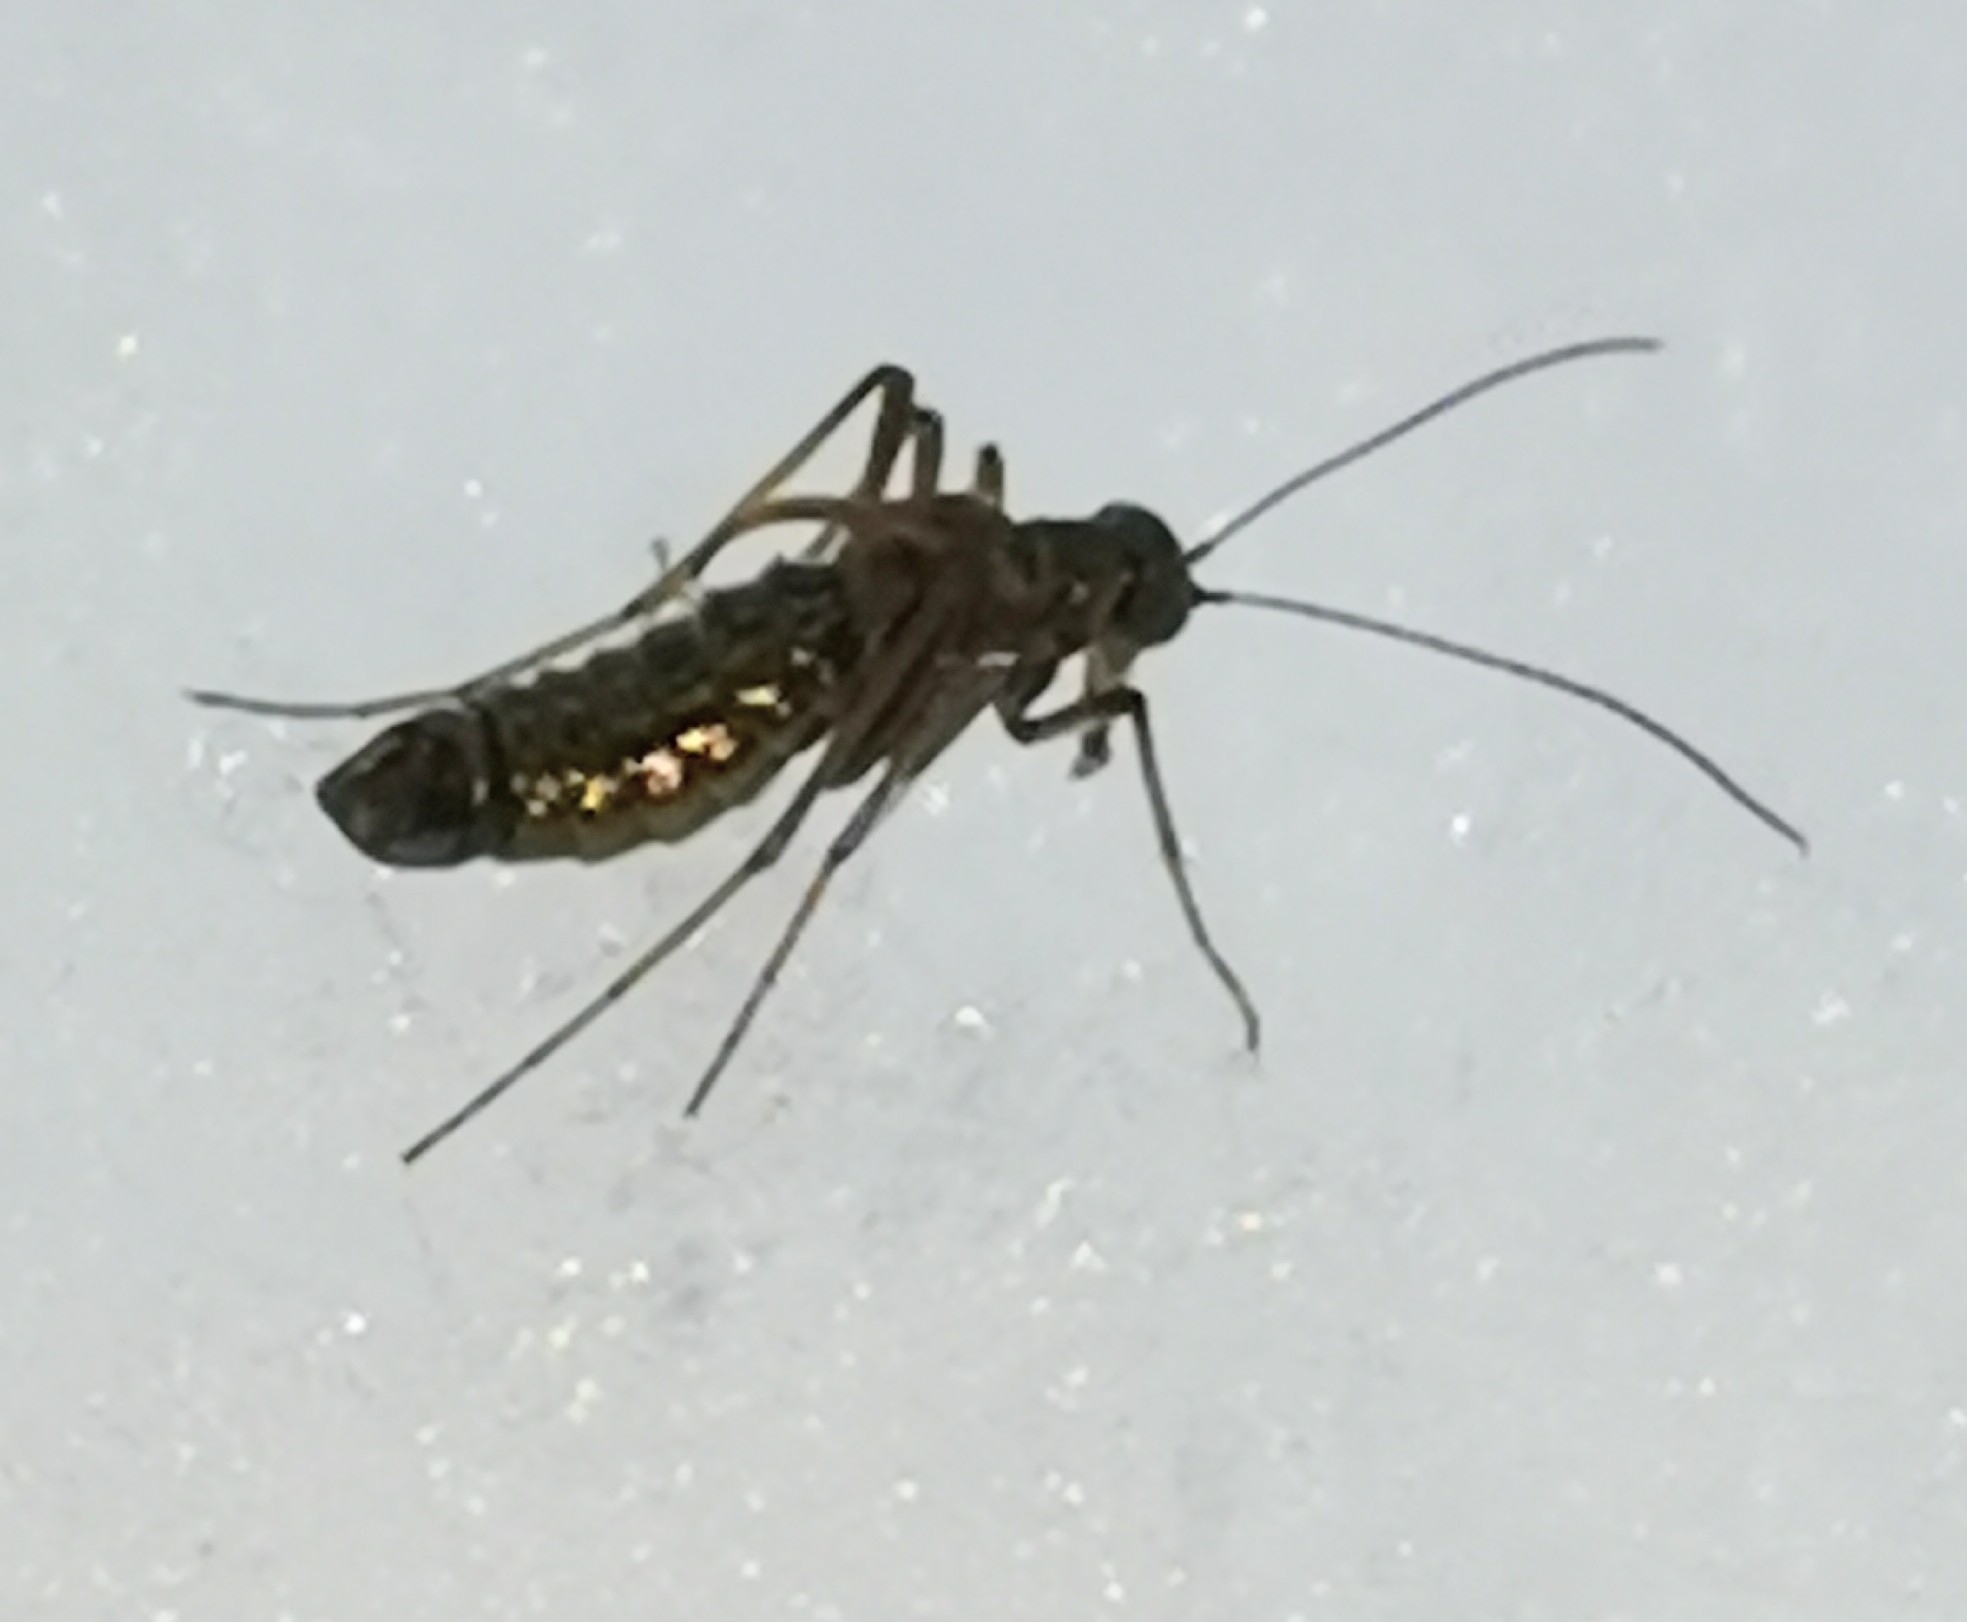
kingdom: Animalia
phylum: Arthropoda
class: Insecta
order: Mecoptera
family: Boreidae
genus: Boreus
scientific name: Boreus westwoodi
